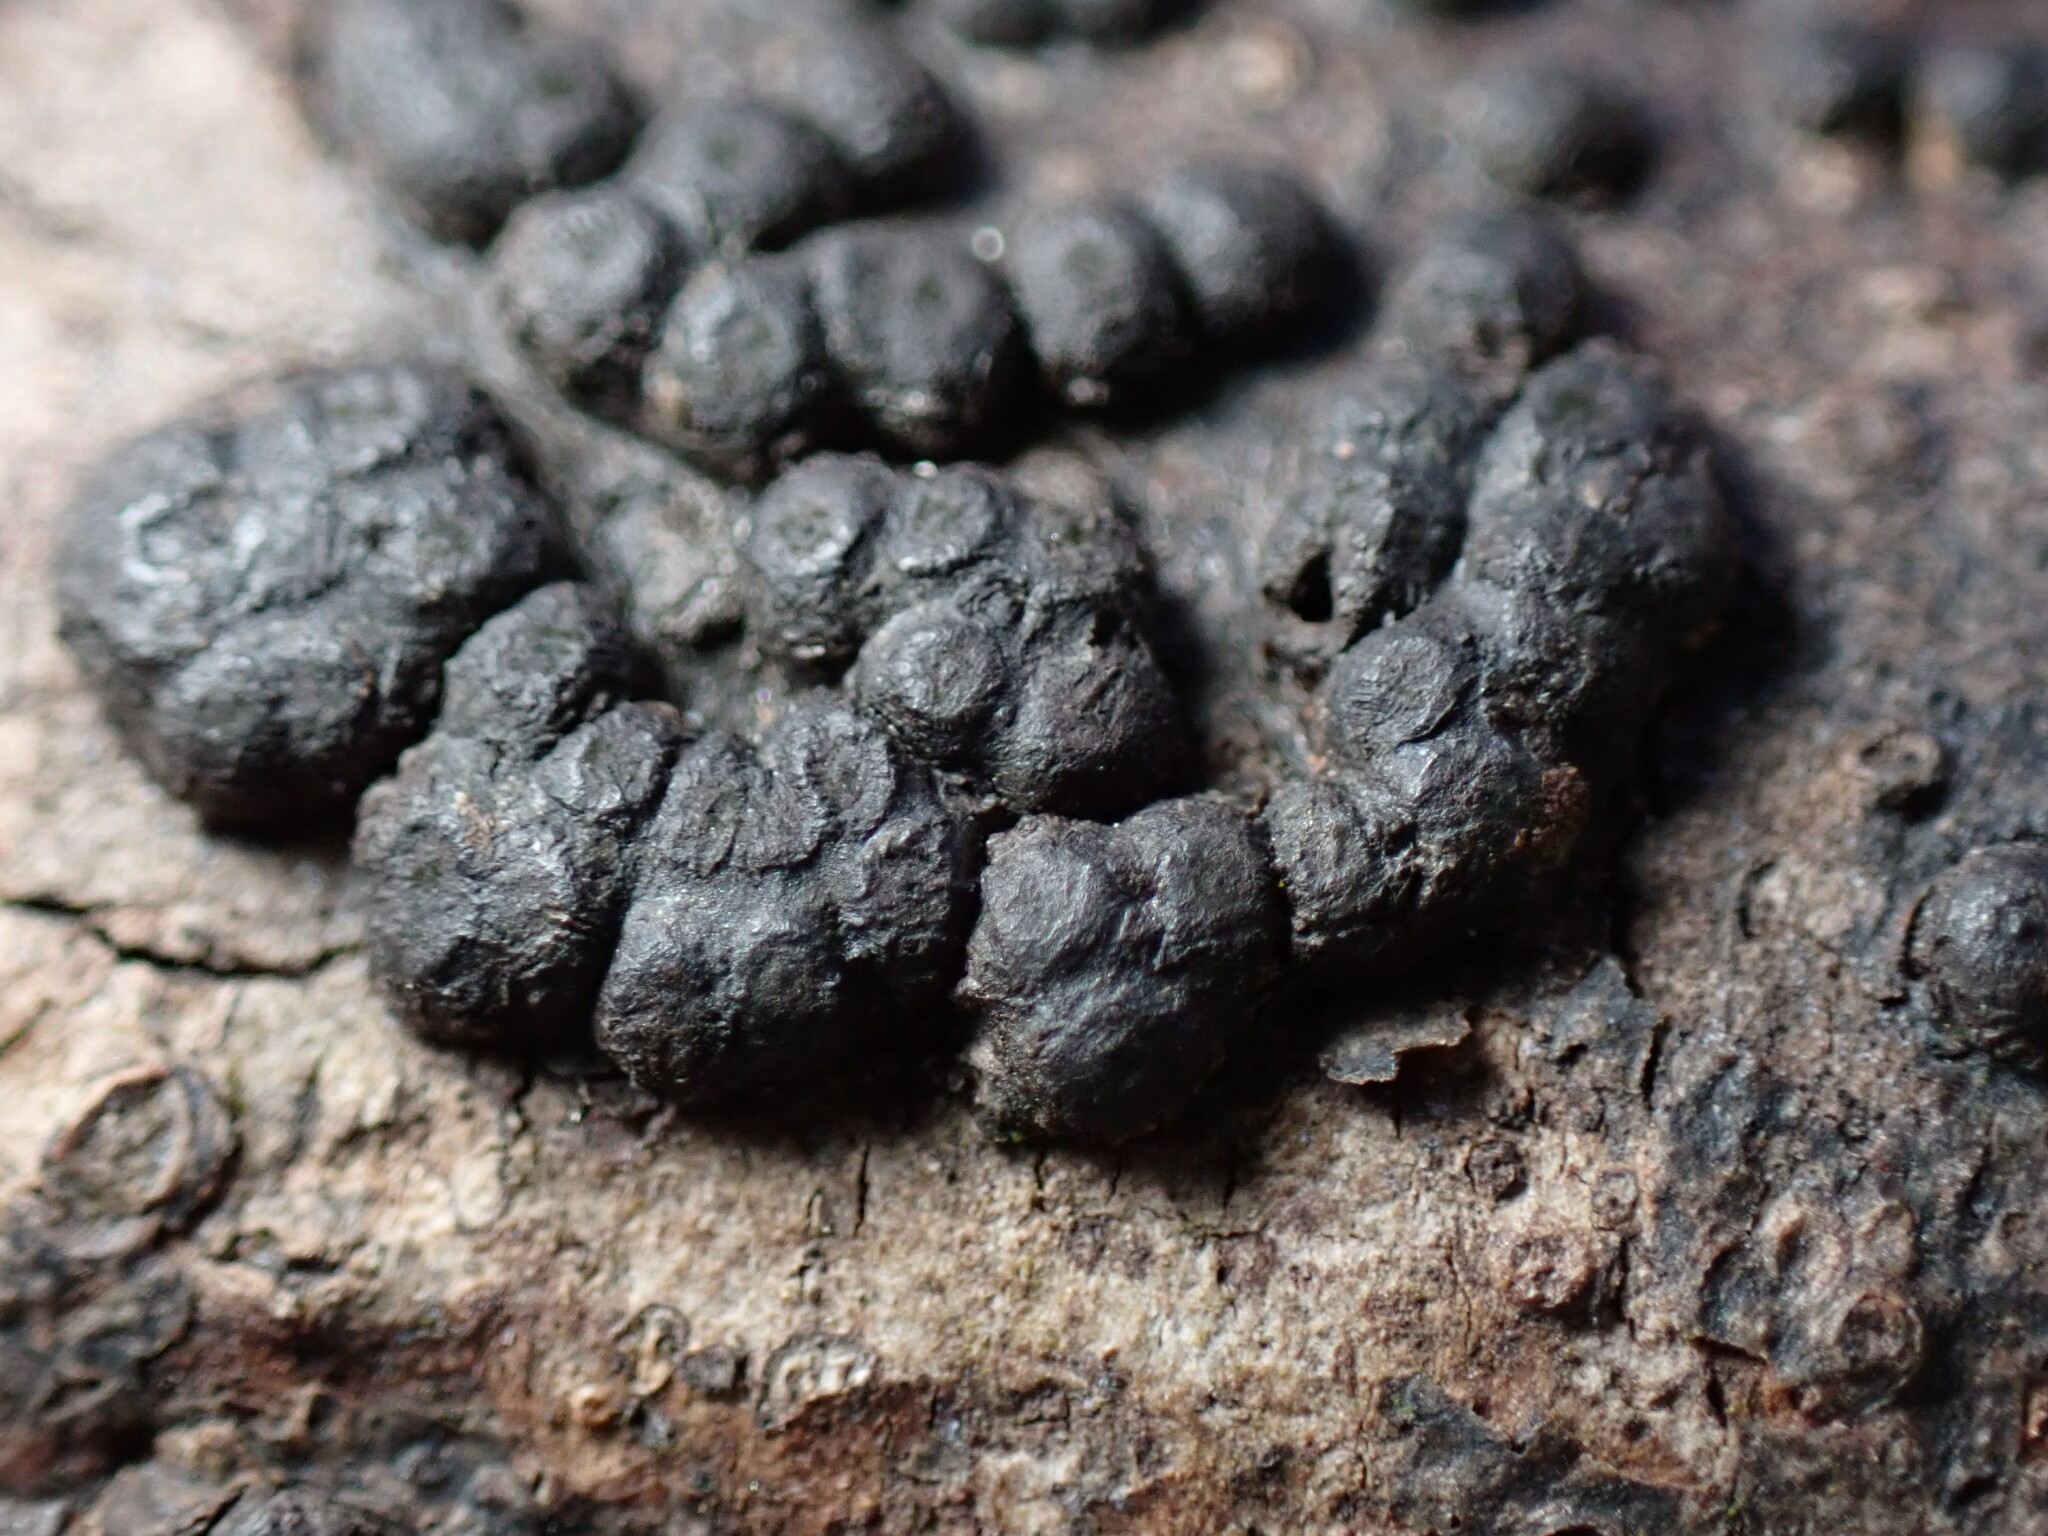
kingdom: Fungi
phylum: Ascomycota
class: Sordariomycetes
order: Xylariales
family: Lopadostomataceae
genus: Creosphaeria
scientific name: Creosphaeria sassafras
